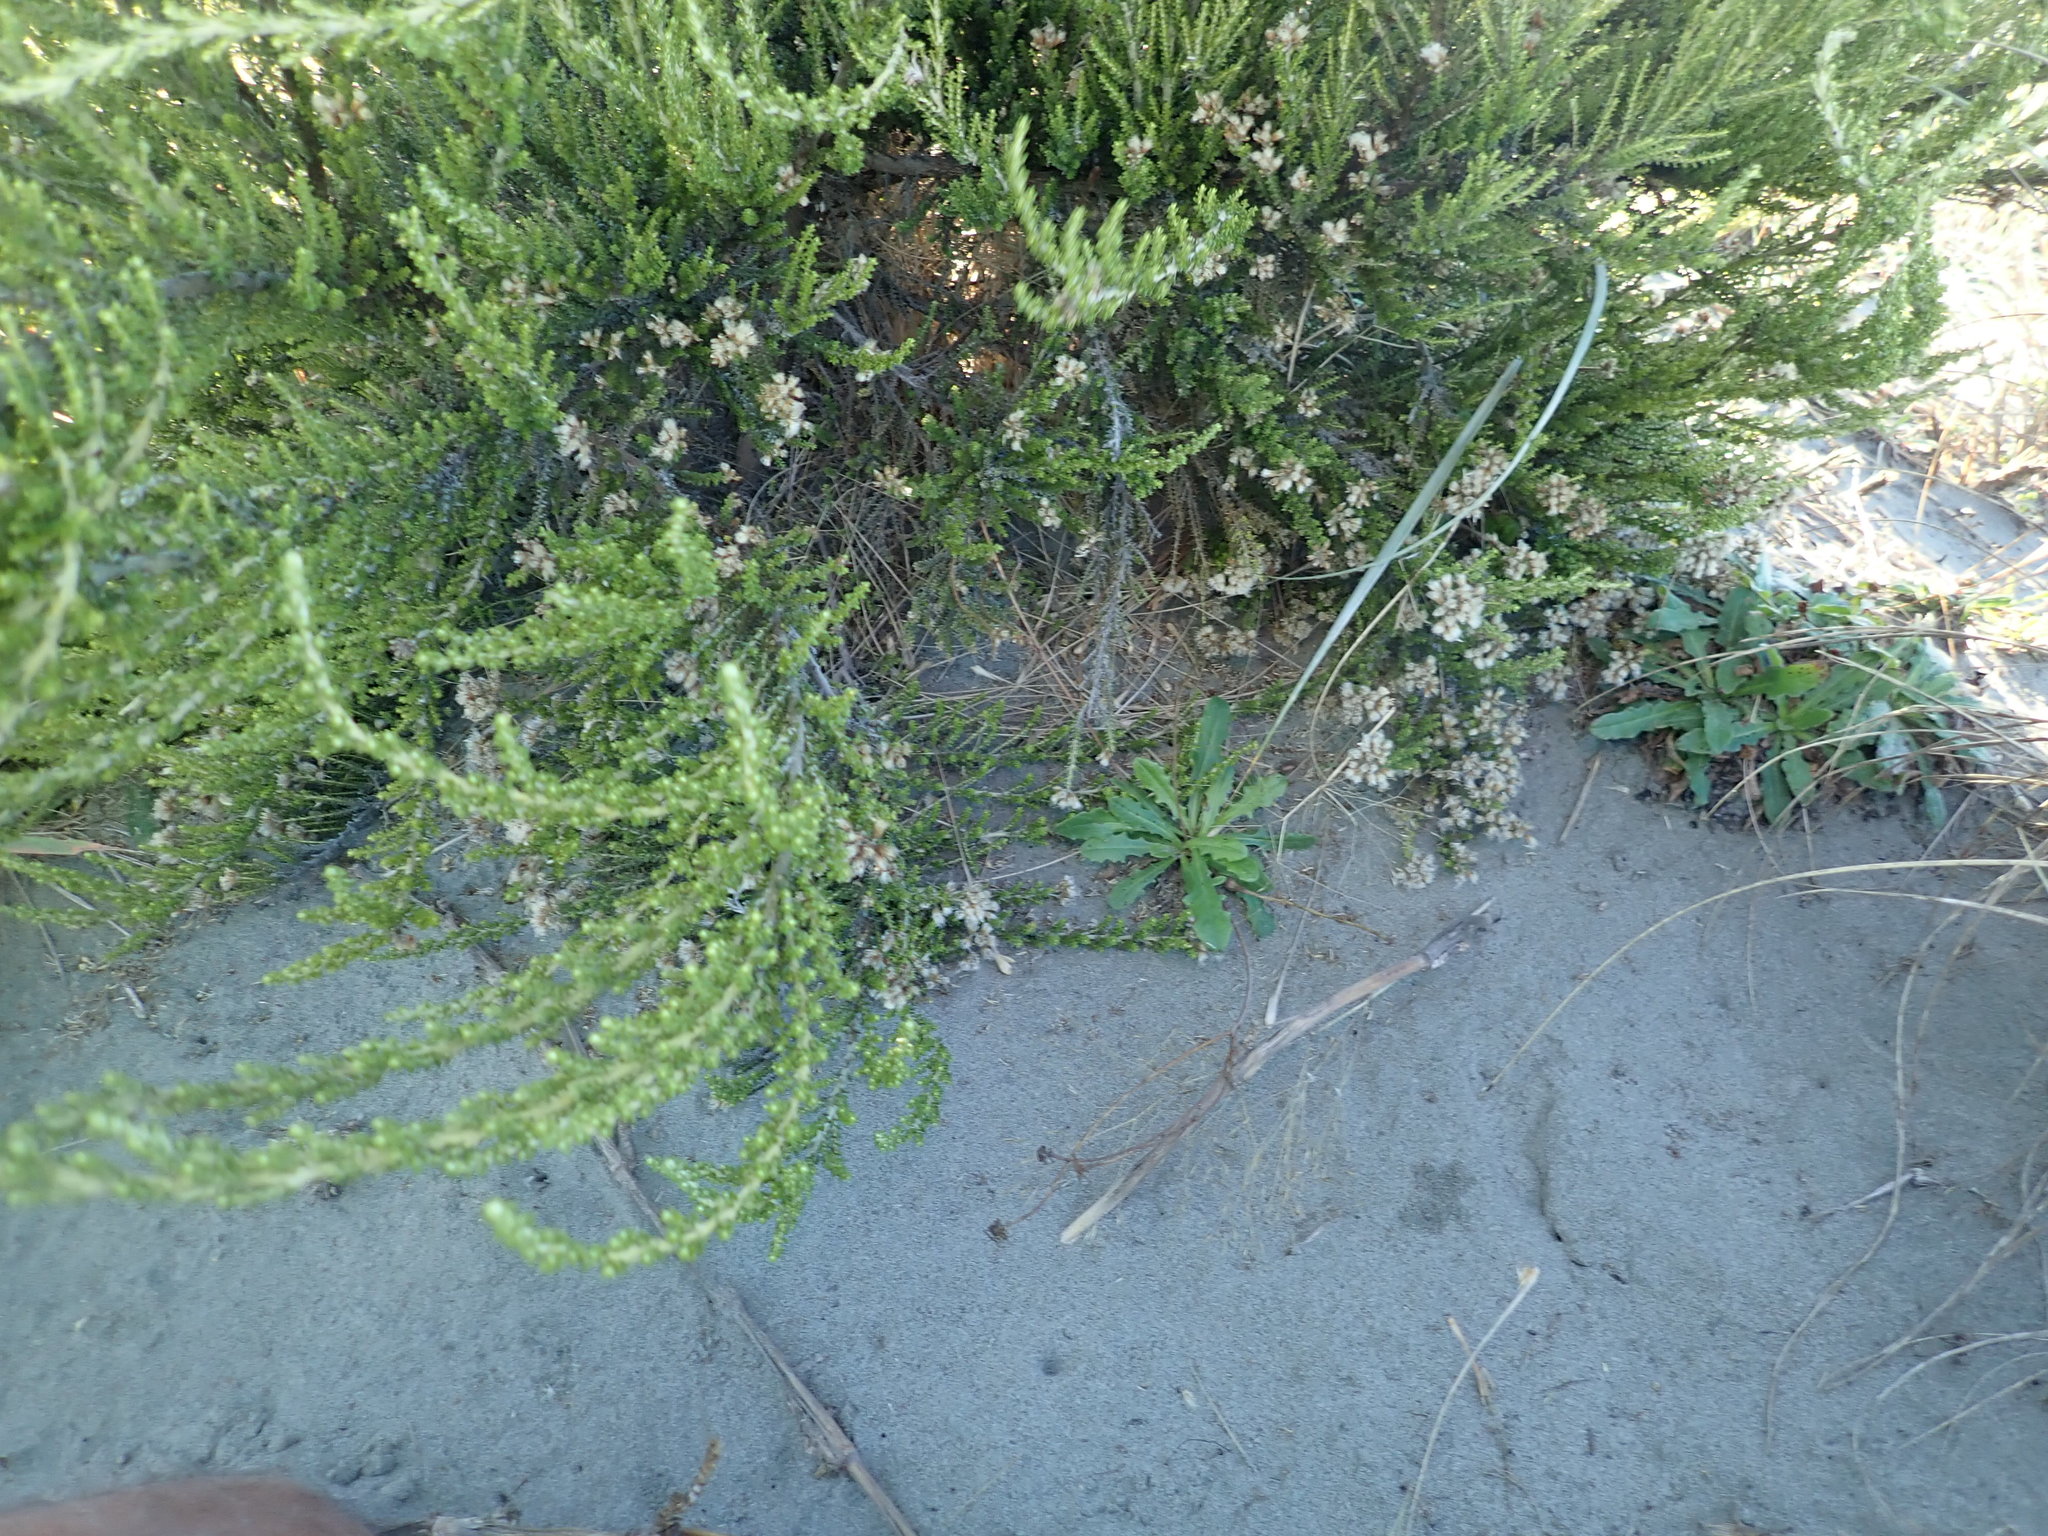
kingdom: Plantae
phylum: Tracheophyta
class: Magnoliopsida
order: Asterales
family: Asteraceae
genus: Ozothamnus
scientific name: Ozothamnus leptophyllus
